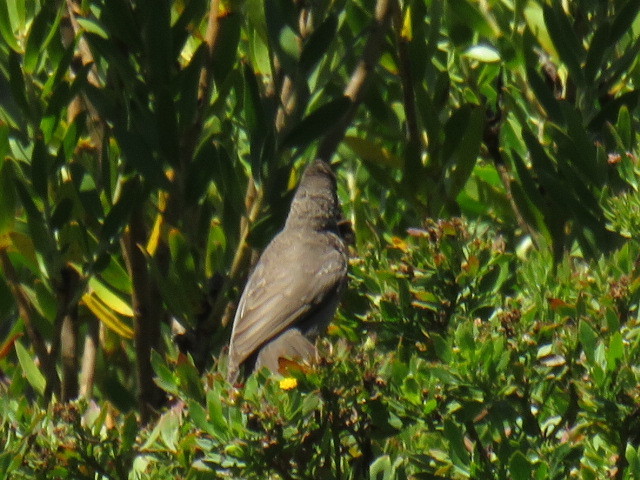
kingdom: Animalia
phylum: Chordata
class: Aves
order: Passeriformes
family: Pycnonotidae
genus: Pycnonotus
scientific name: Pycnonotus capensis
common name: Cape bulbul
